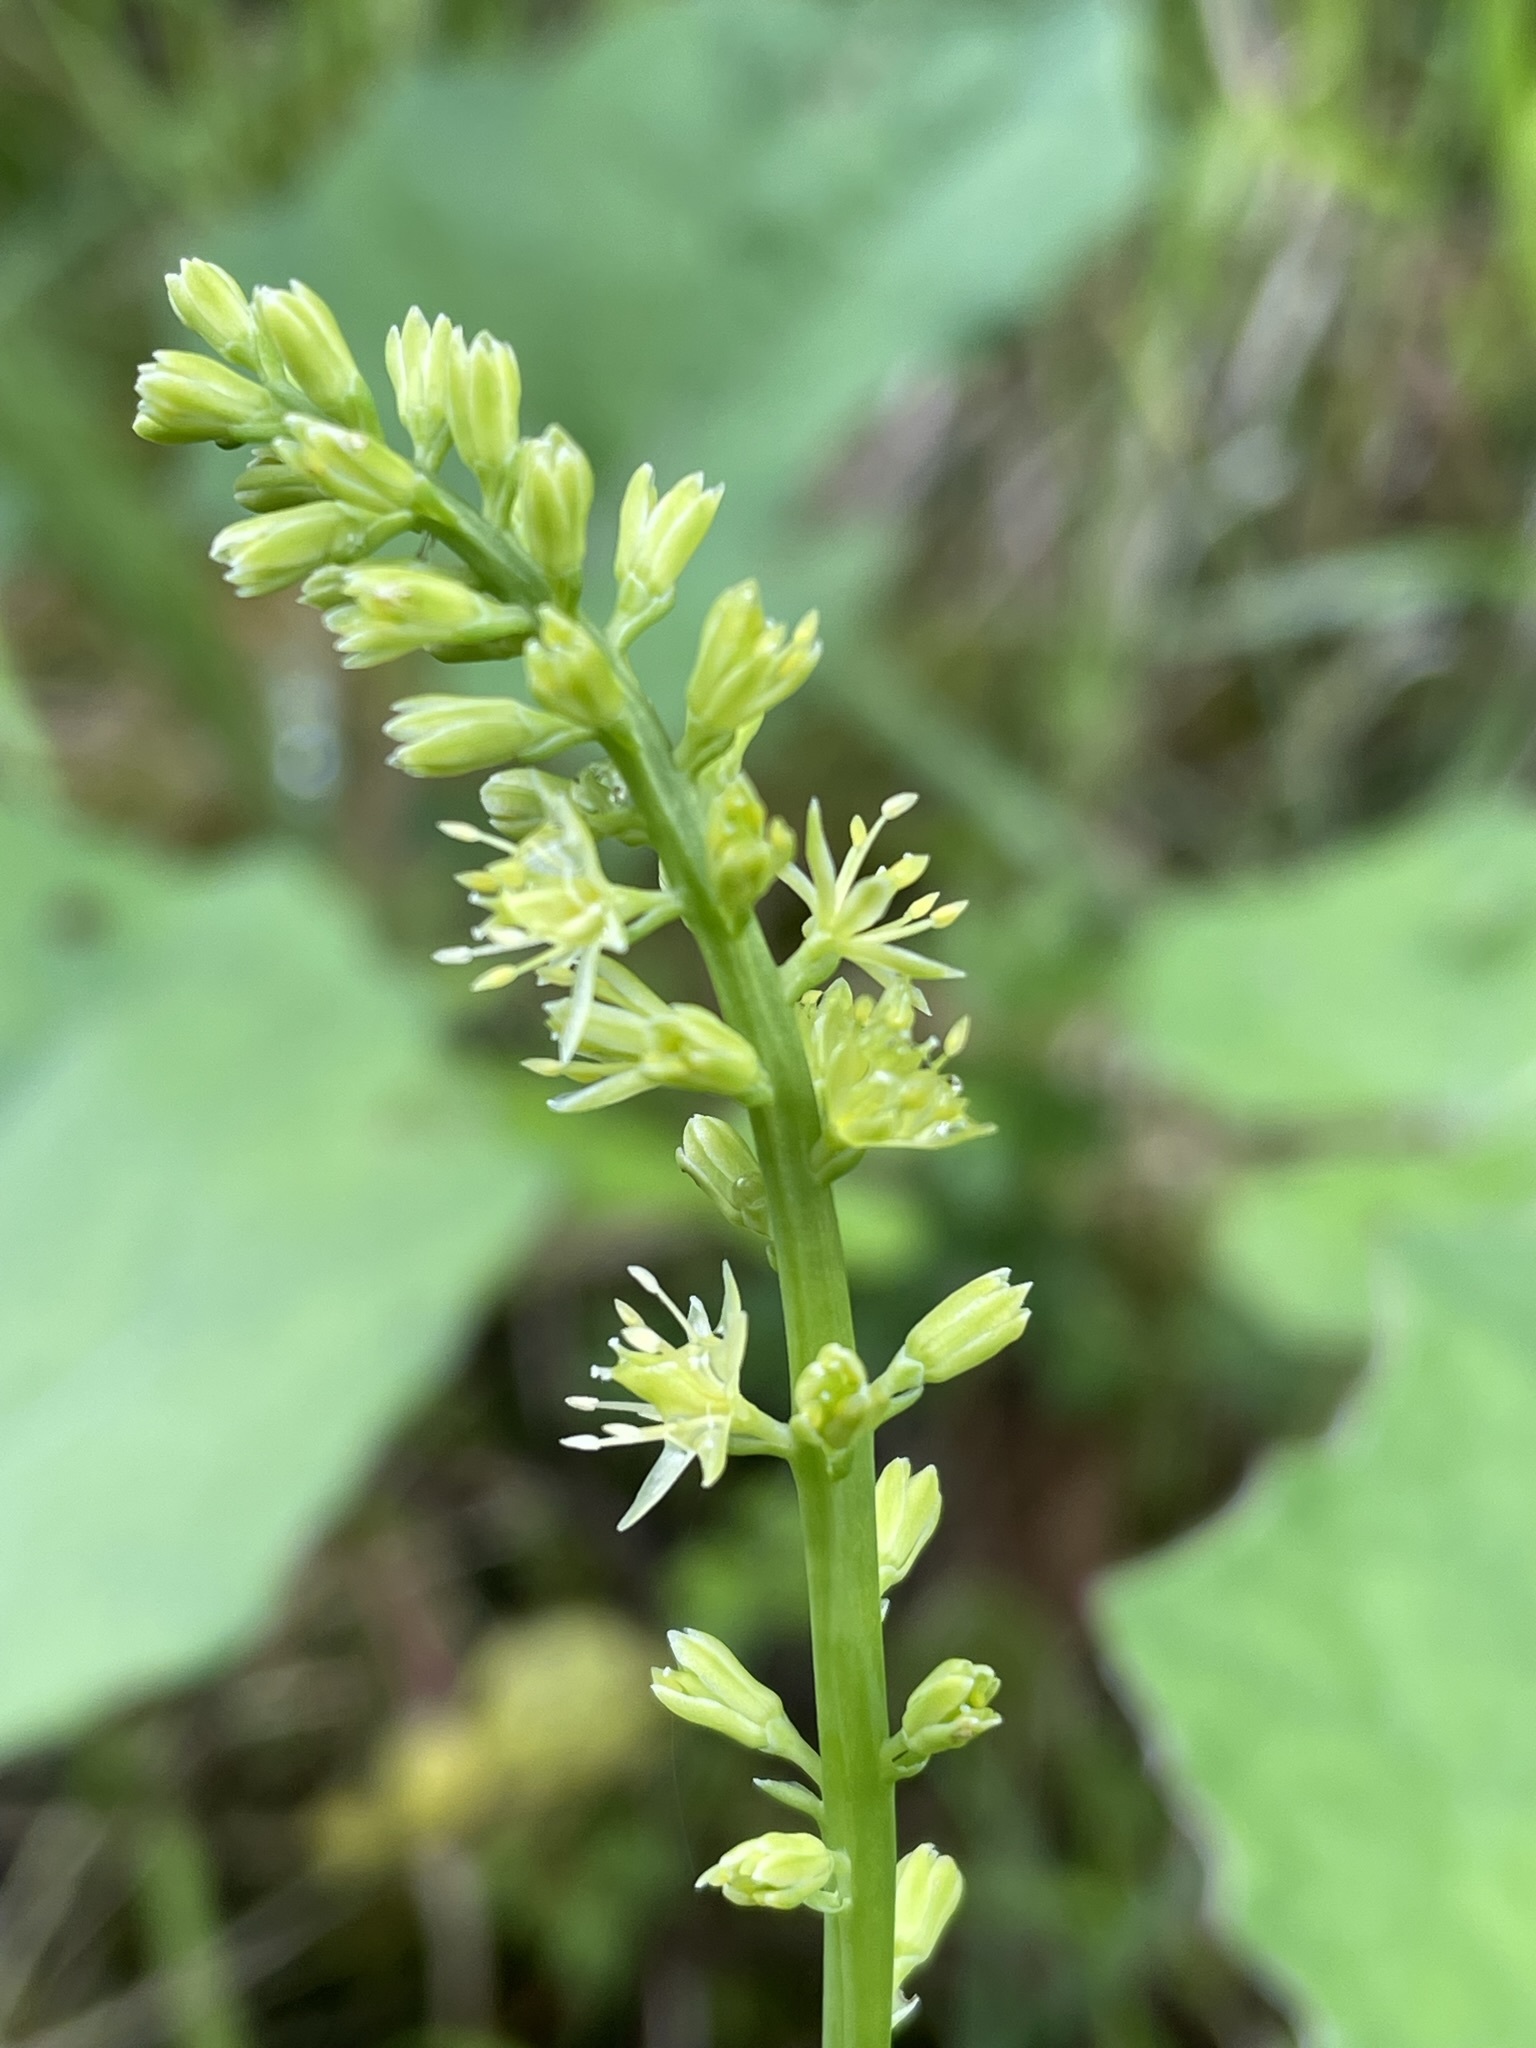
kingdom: Plantae
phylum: Tracheophyta
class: Liliopsida
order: Alismatales
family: Tofieldiaceae
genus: Tofieldia
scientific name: Tofieldia calyculata
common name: German-asphodel
